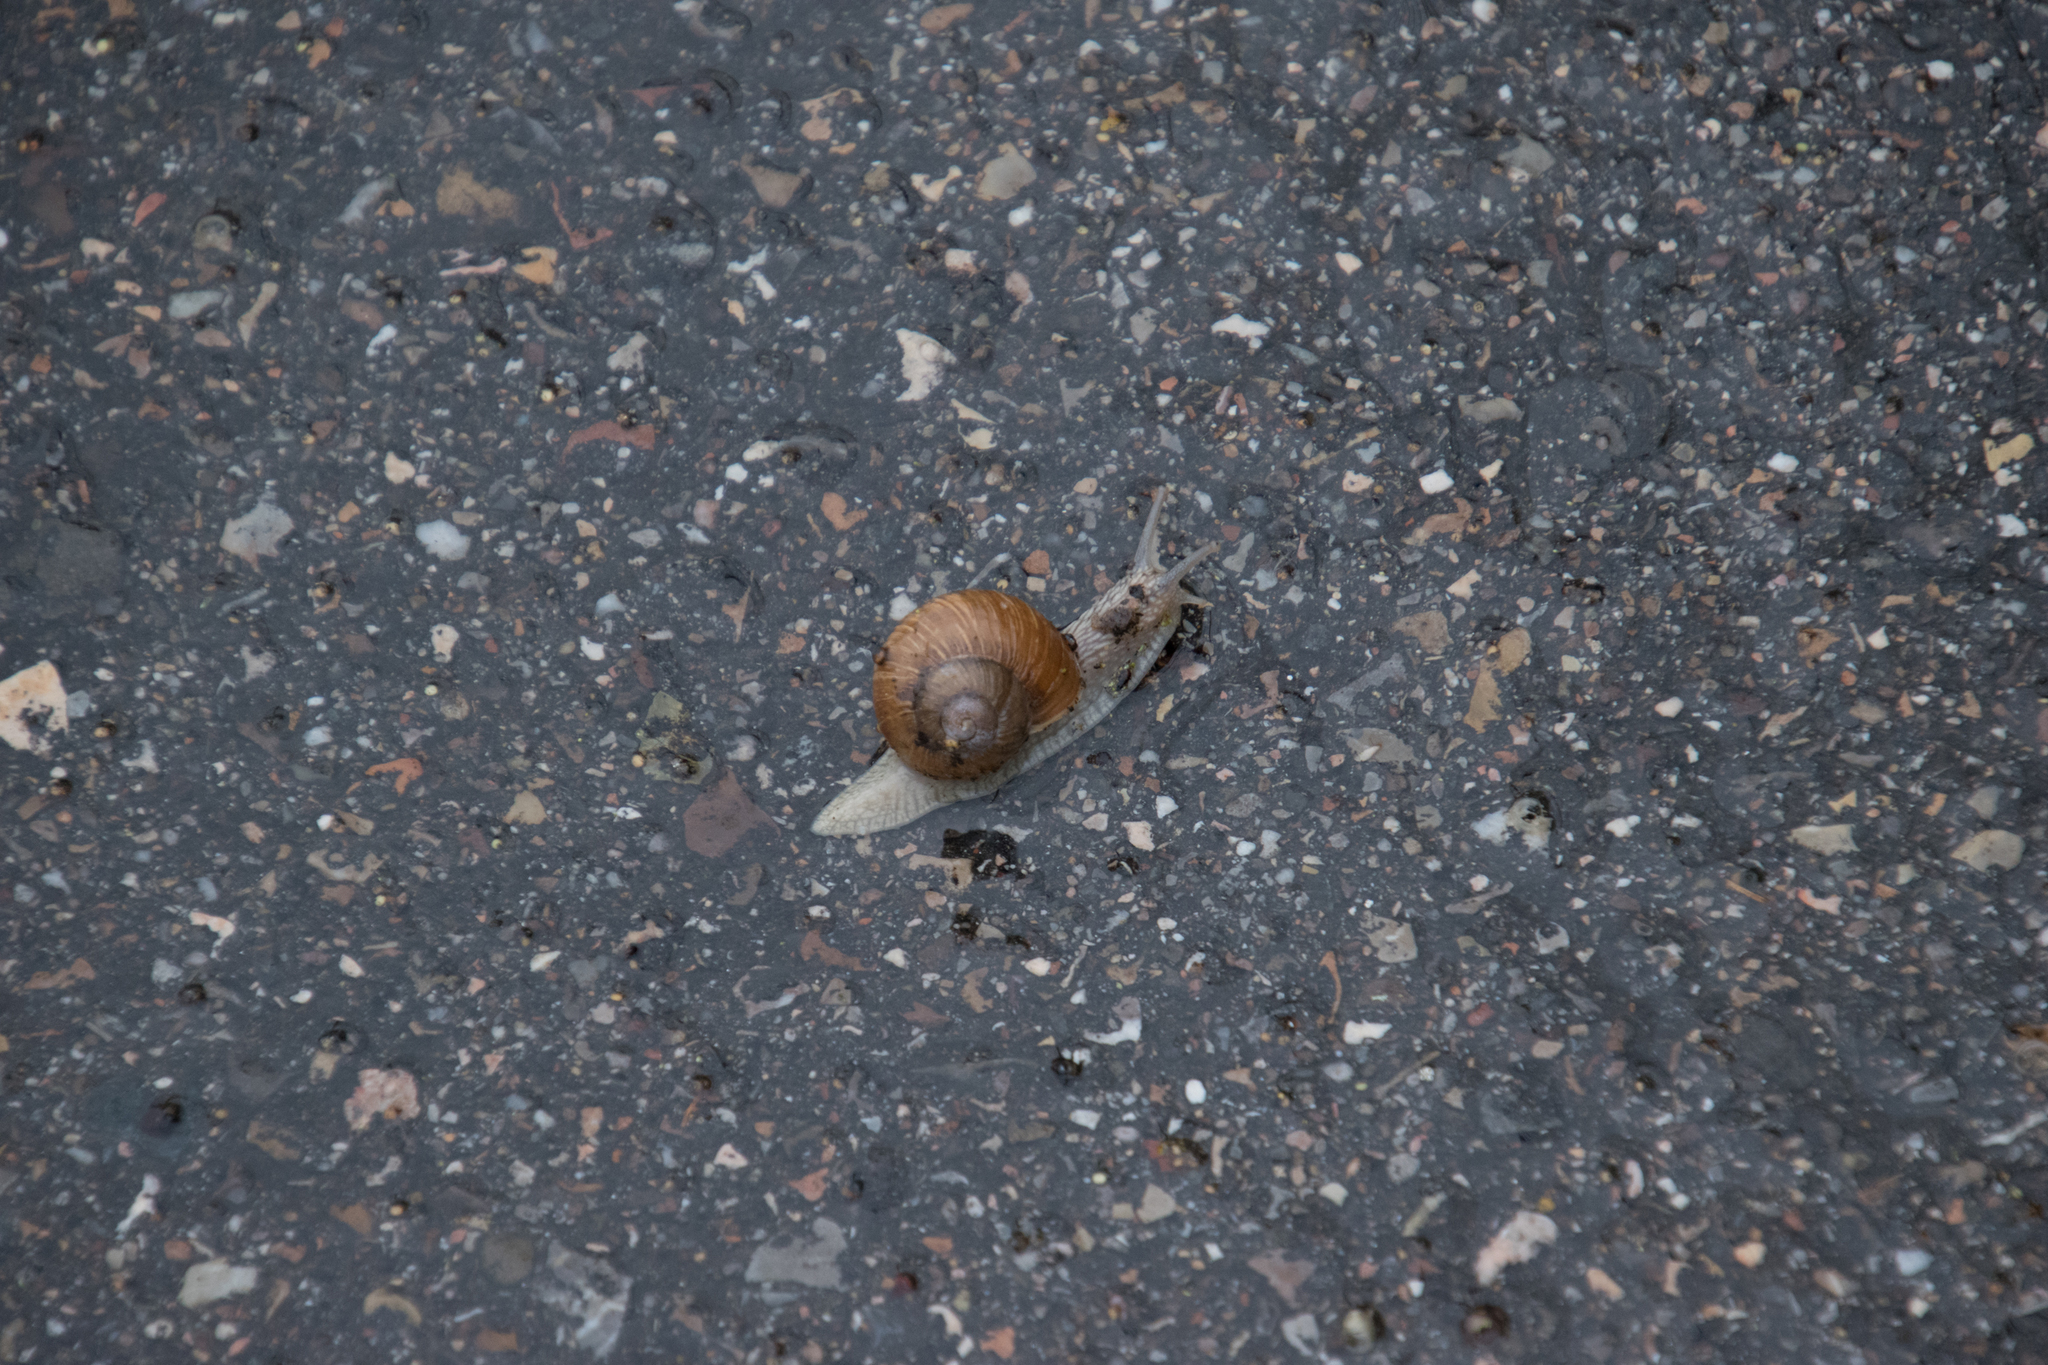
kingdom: Animalia
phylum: Mollusca
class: Gastropoda
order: Stylommatophora
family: Helicidae
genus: Helix
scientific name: Helix pomatia
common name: Roman snail
